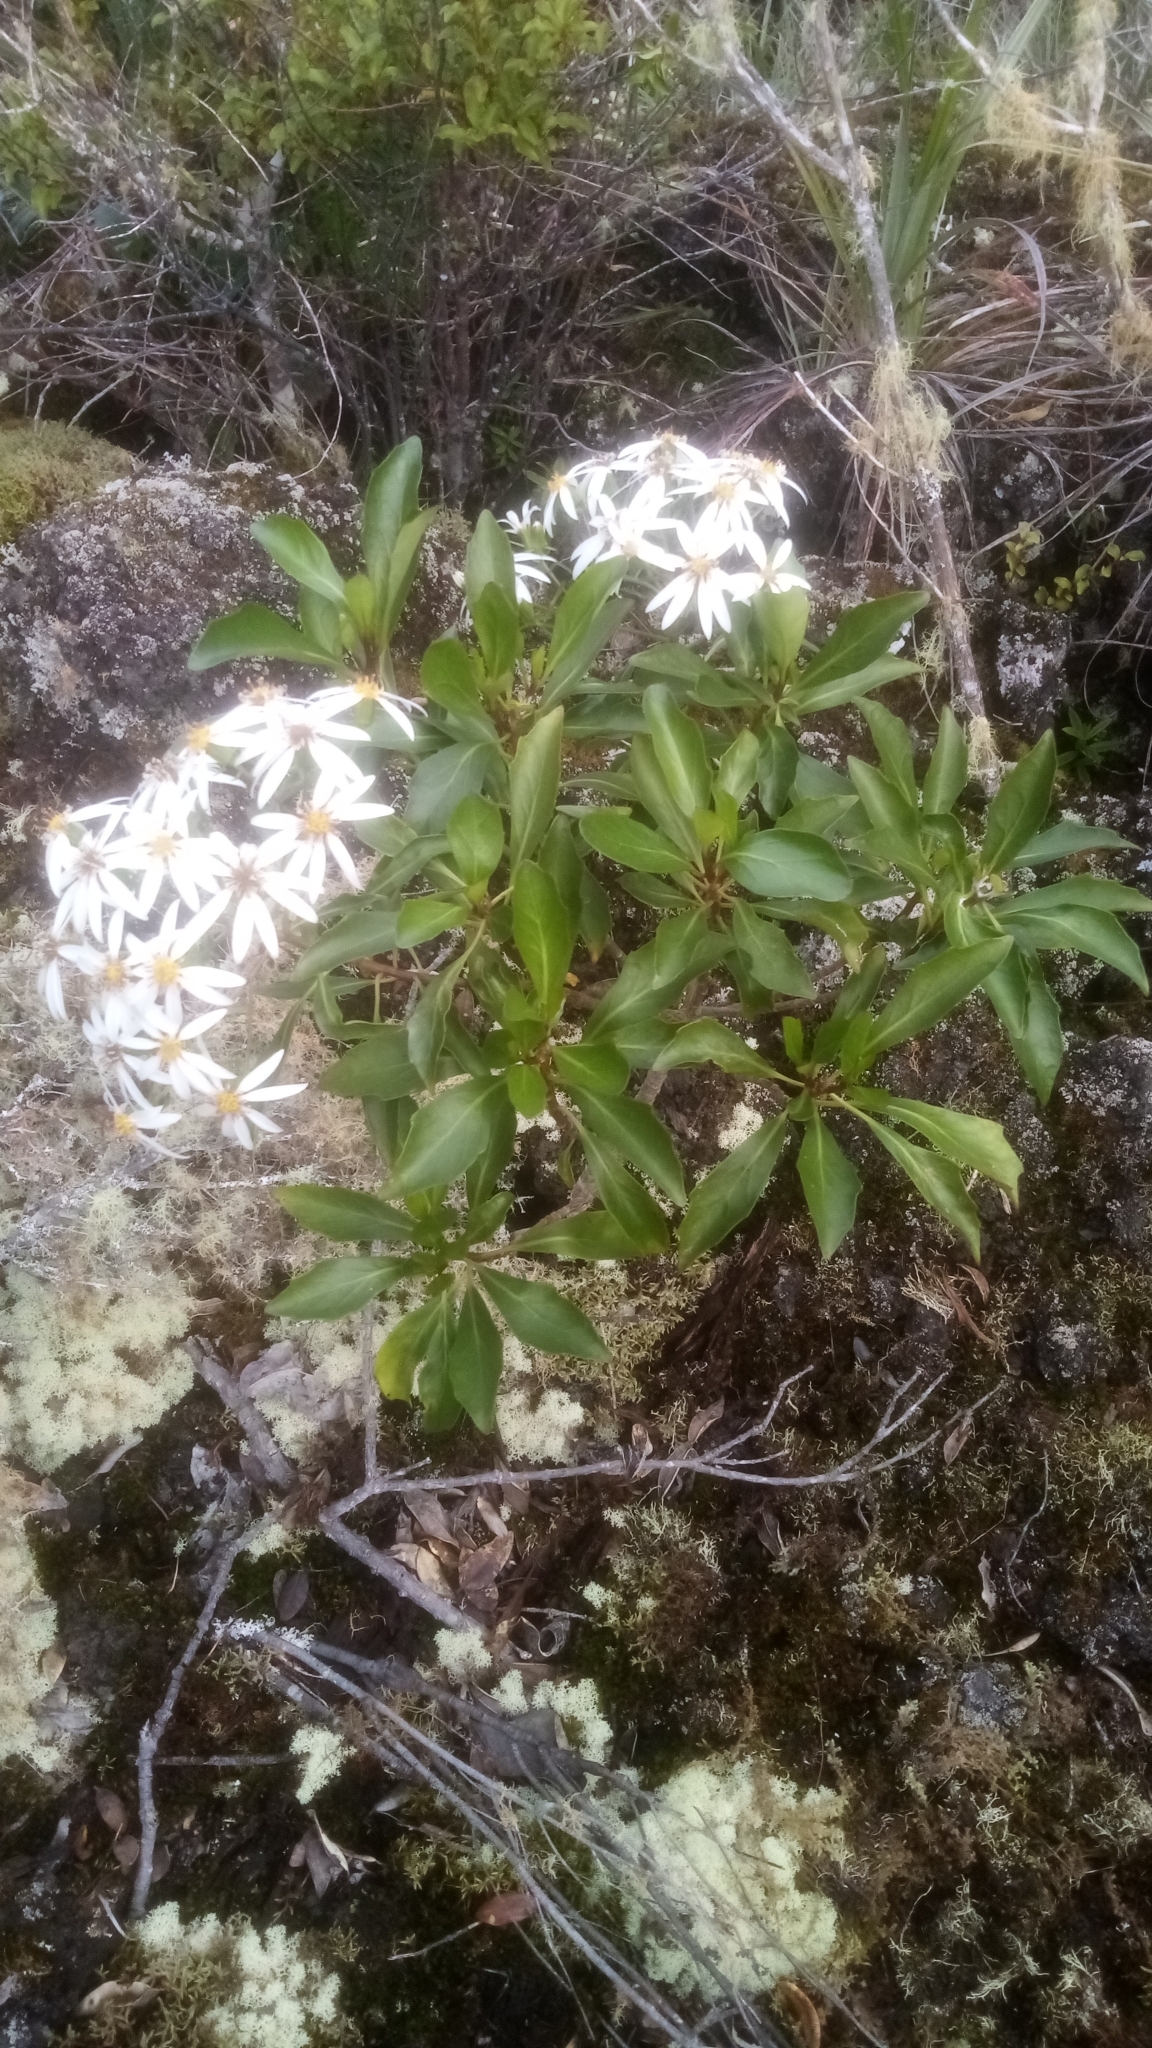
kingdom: Plantae
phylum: Tracheophyta
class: Magnoliopsida
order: Asterales
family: Asteraceae
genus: Brachyglottis
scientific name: Brachyglottis kirkii
